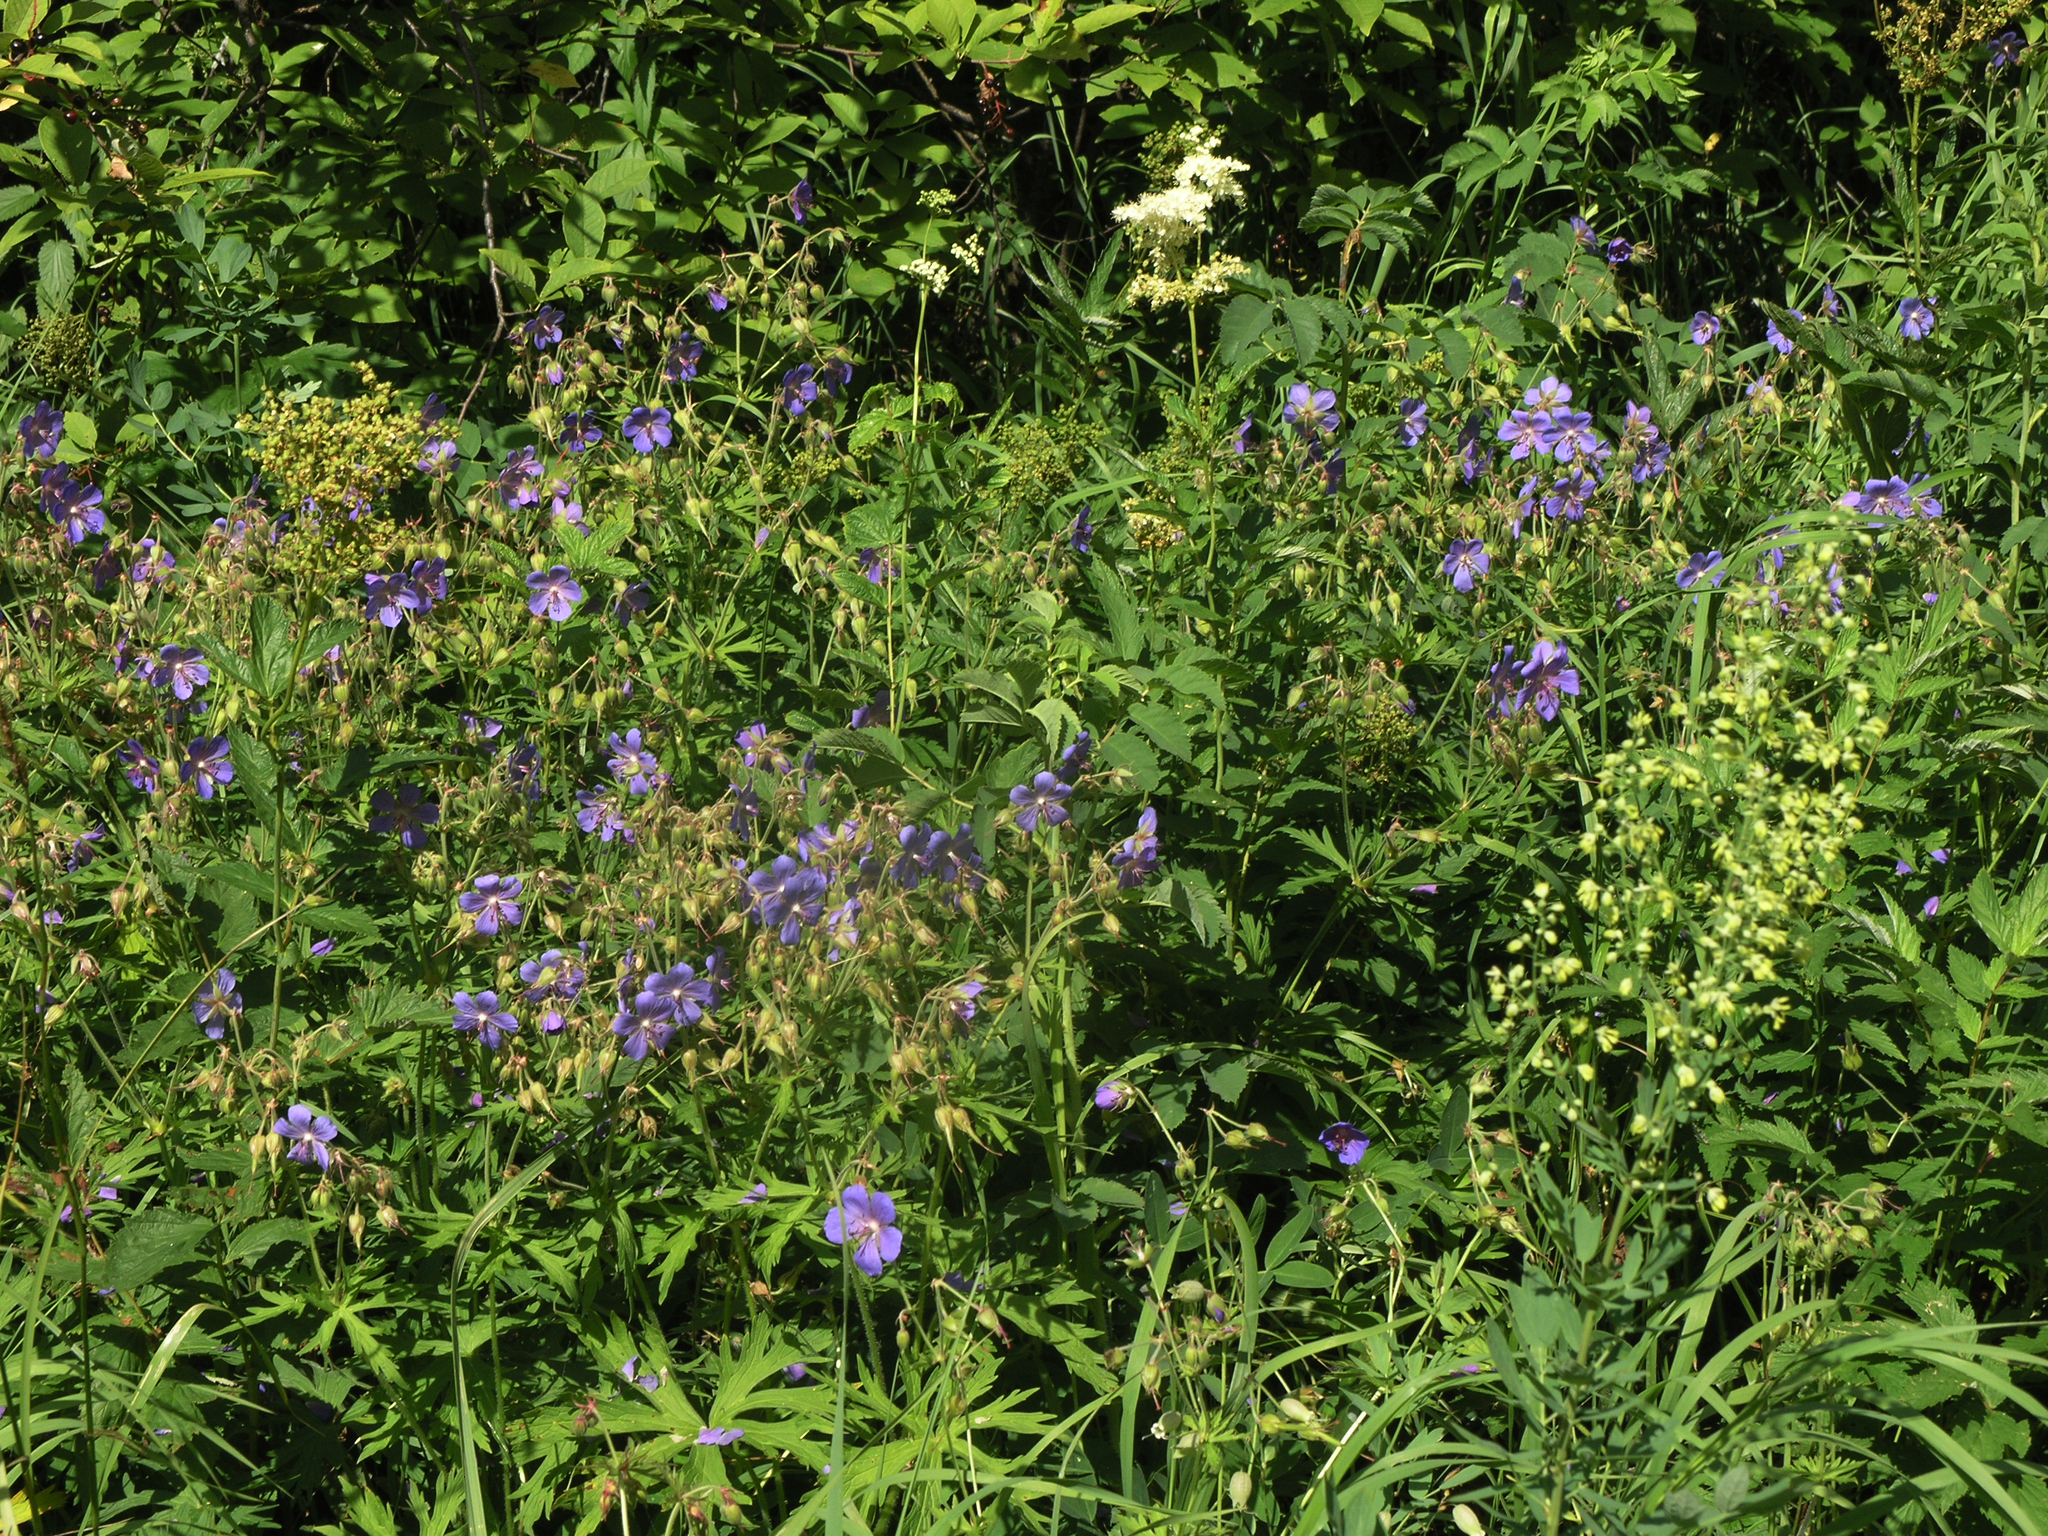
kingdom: Plantae
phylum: Tracheophyta
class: Magnoliopsida
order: Geraniales
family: Geraniaceae
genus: Geranium
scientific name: Geranium pratense
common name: Meadow crane's-bill
